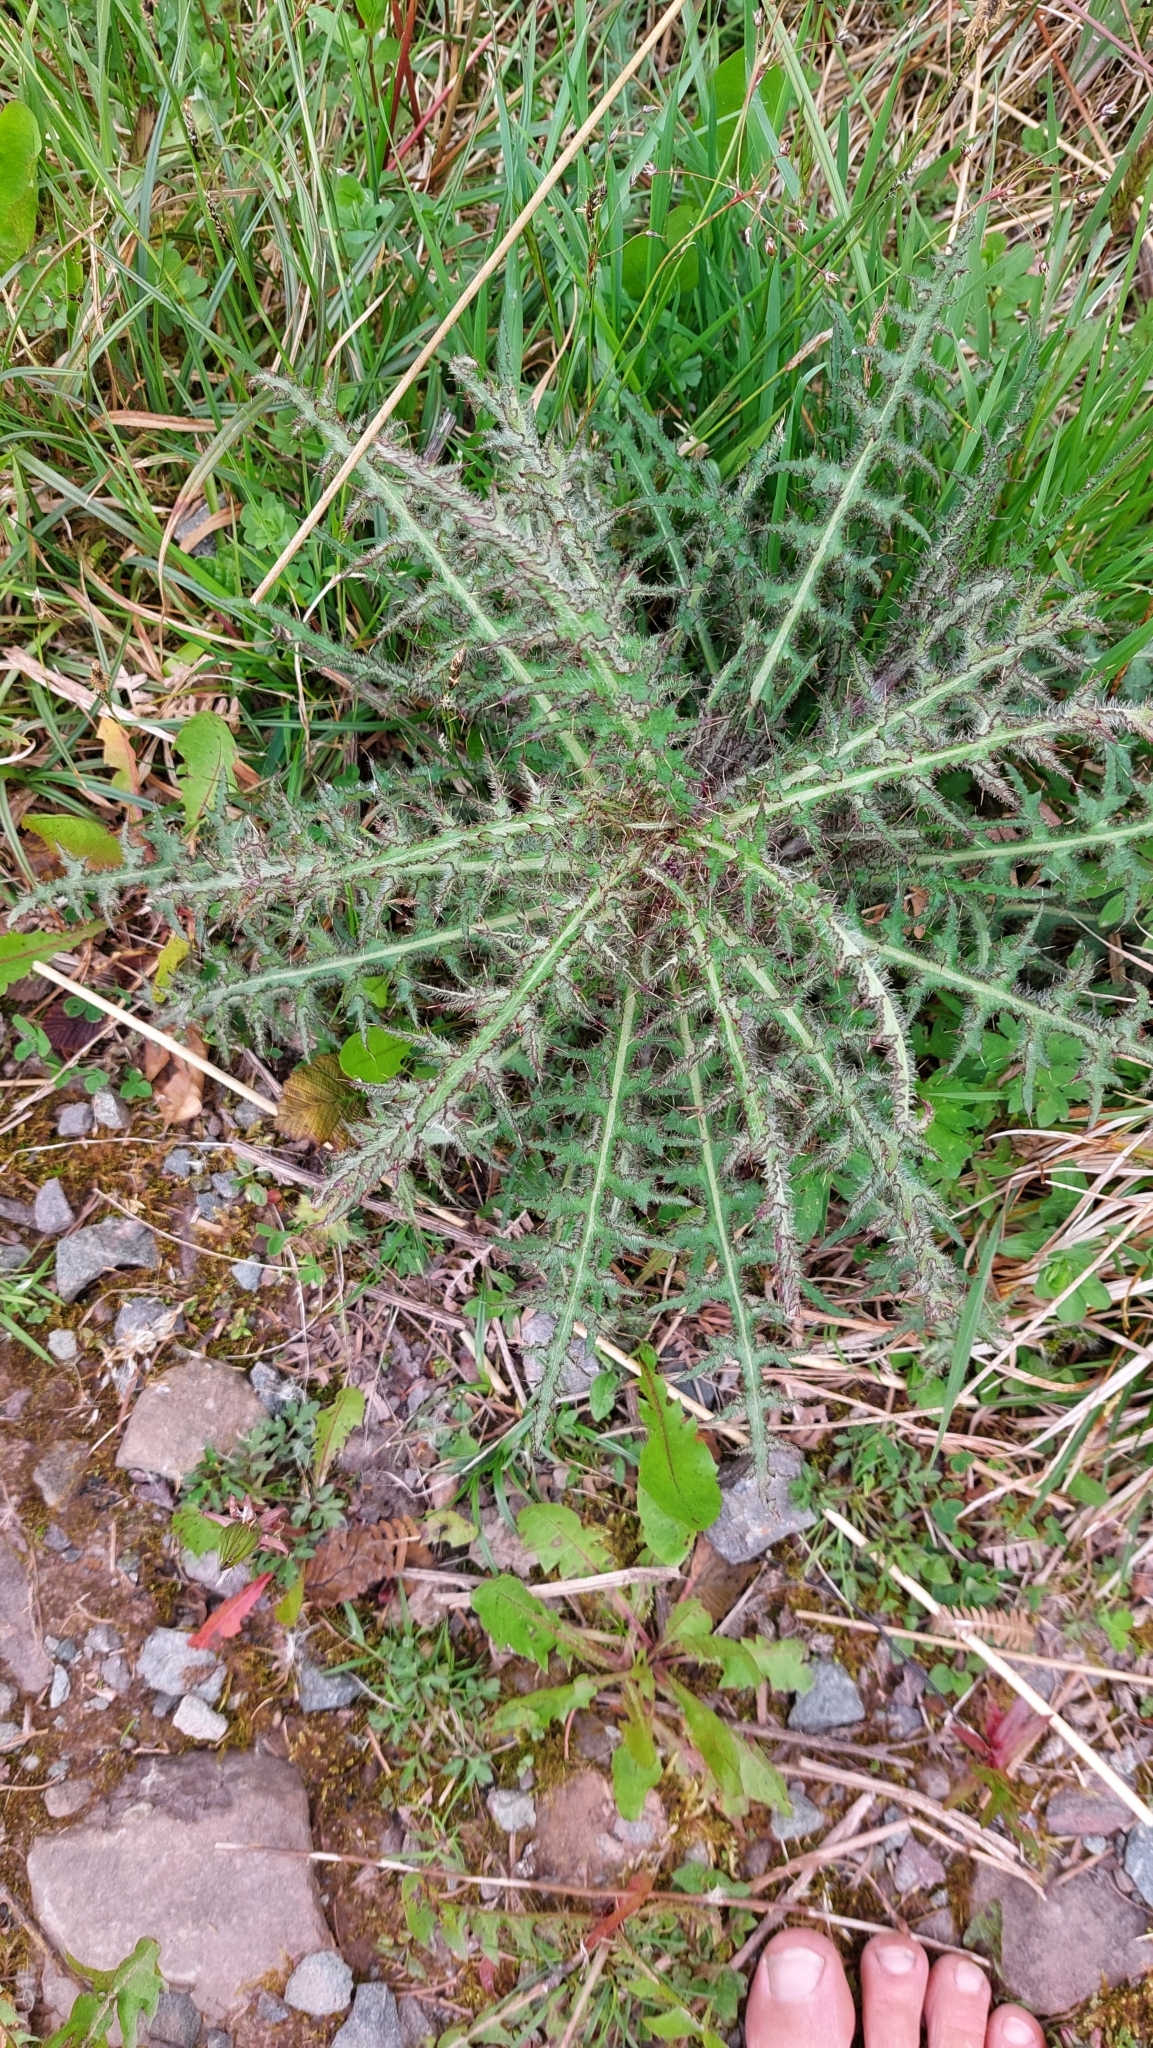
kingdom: Plantae
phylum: Tracheophyta
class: Magnoliopsida
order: Asterales
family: Asteraceae
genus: Cirsium
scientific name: Cirsium palustre
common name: Marsh thistle
